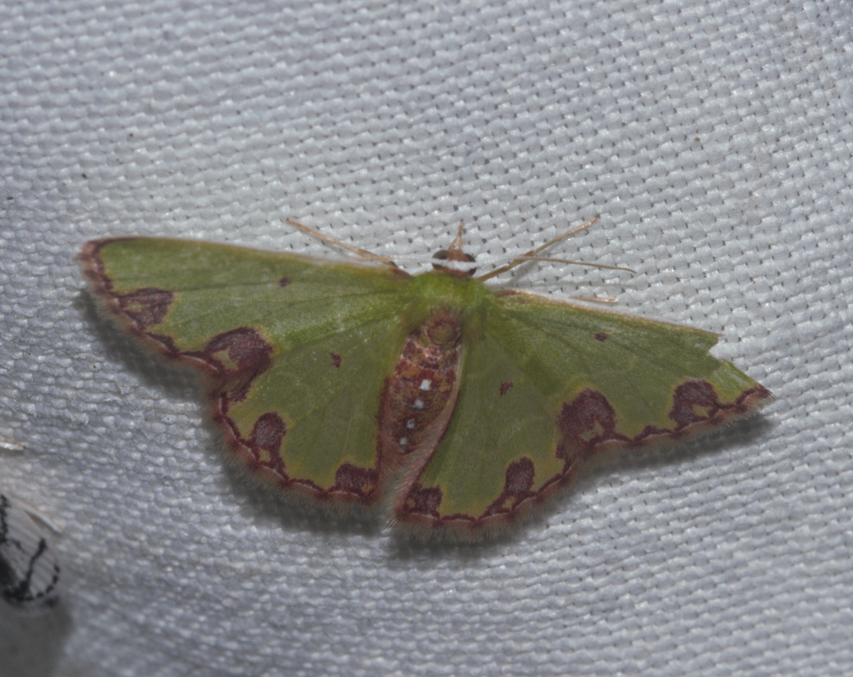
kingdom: Animalia
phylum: Arthropoda
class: Insecta
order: Lepidoptera
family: Geometridae
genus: Synchlora
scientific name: Synchlora gerularia
